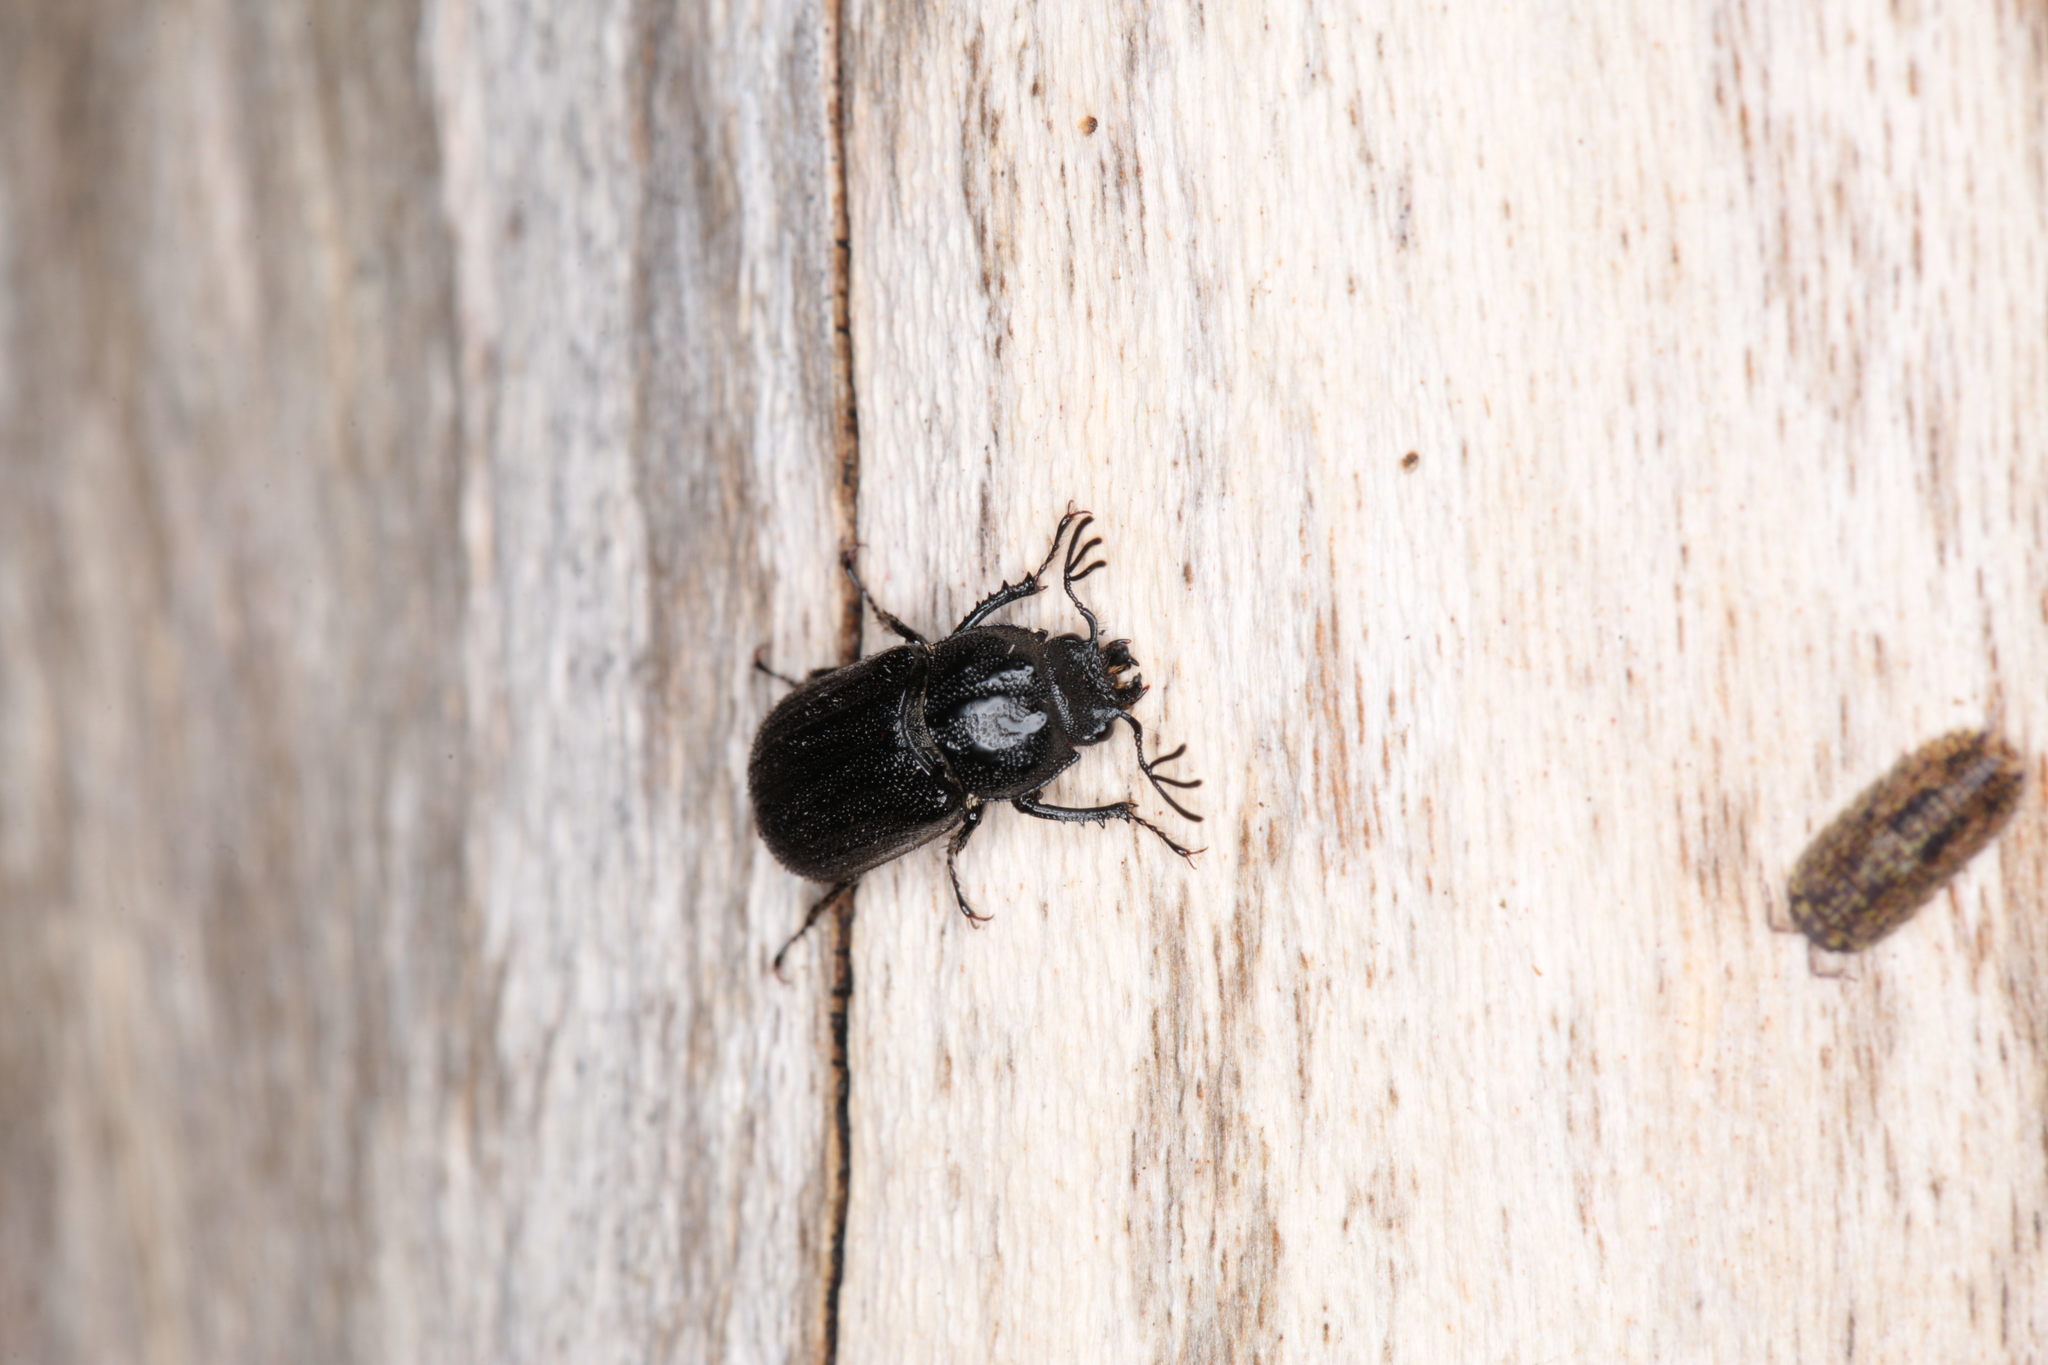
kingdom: Animalia
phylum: Arthropoda
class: Insecta
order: Coleoptera
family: Lucanidae
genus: Holloceratognathus
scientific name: Holloceratognathus helotoides
